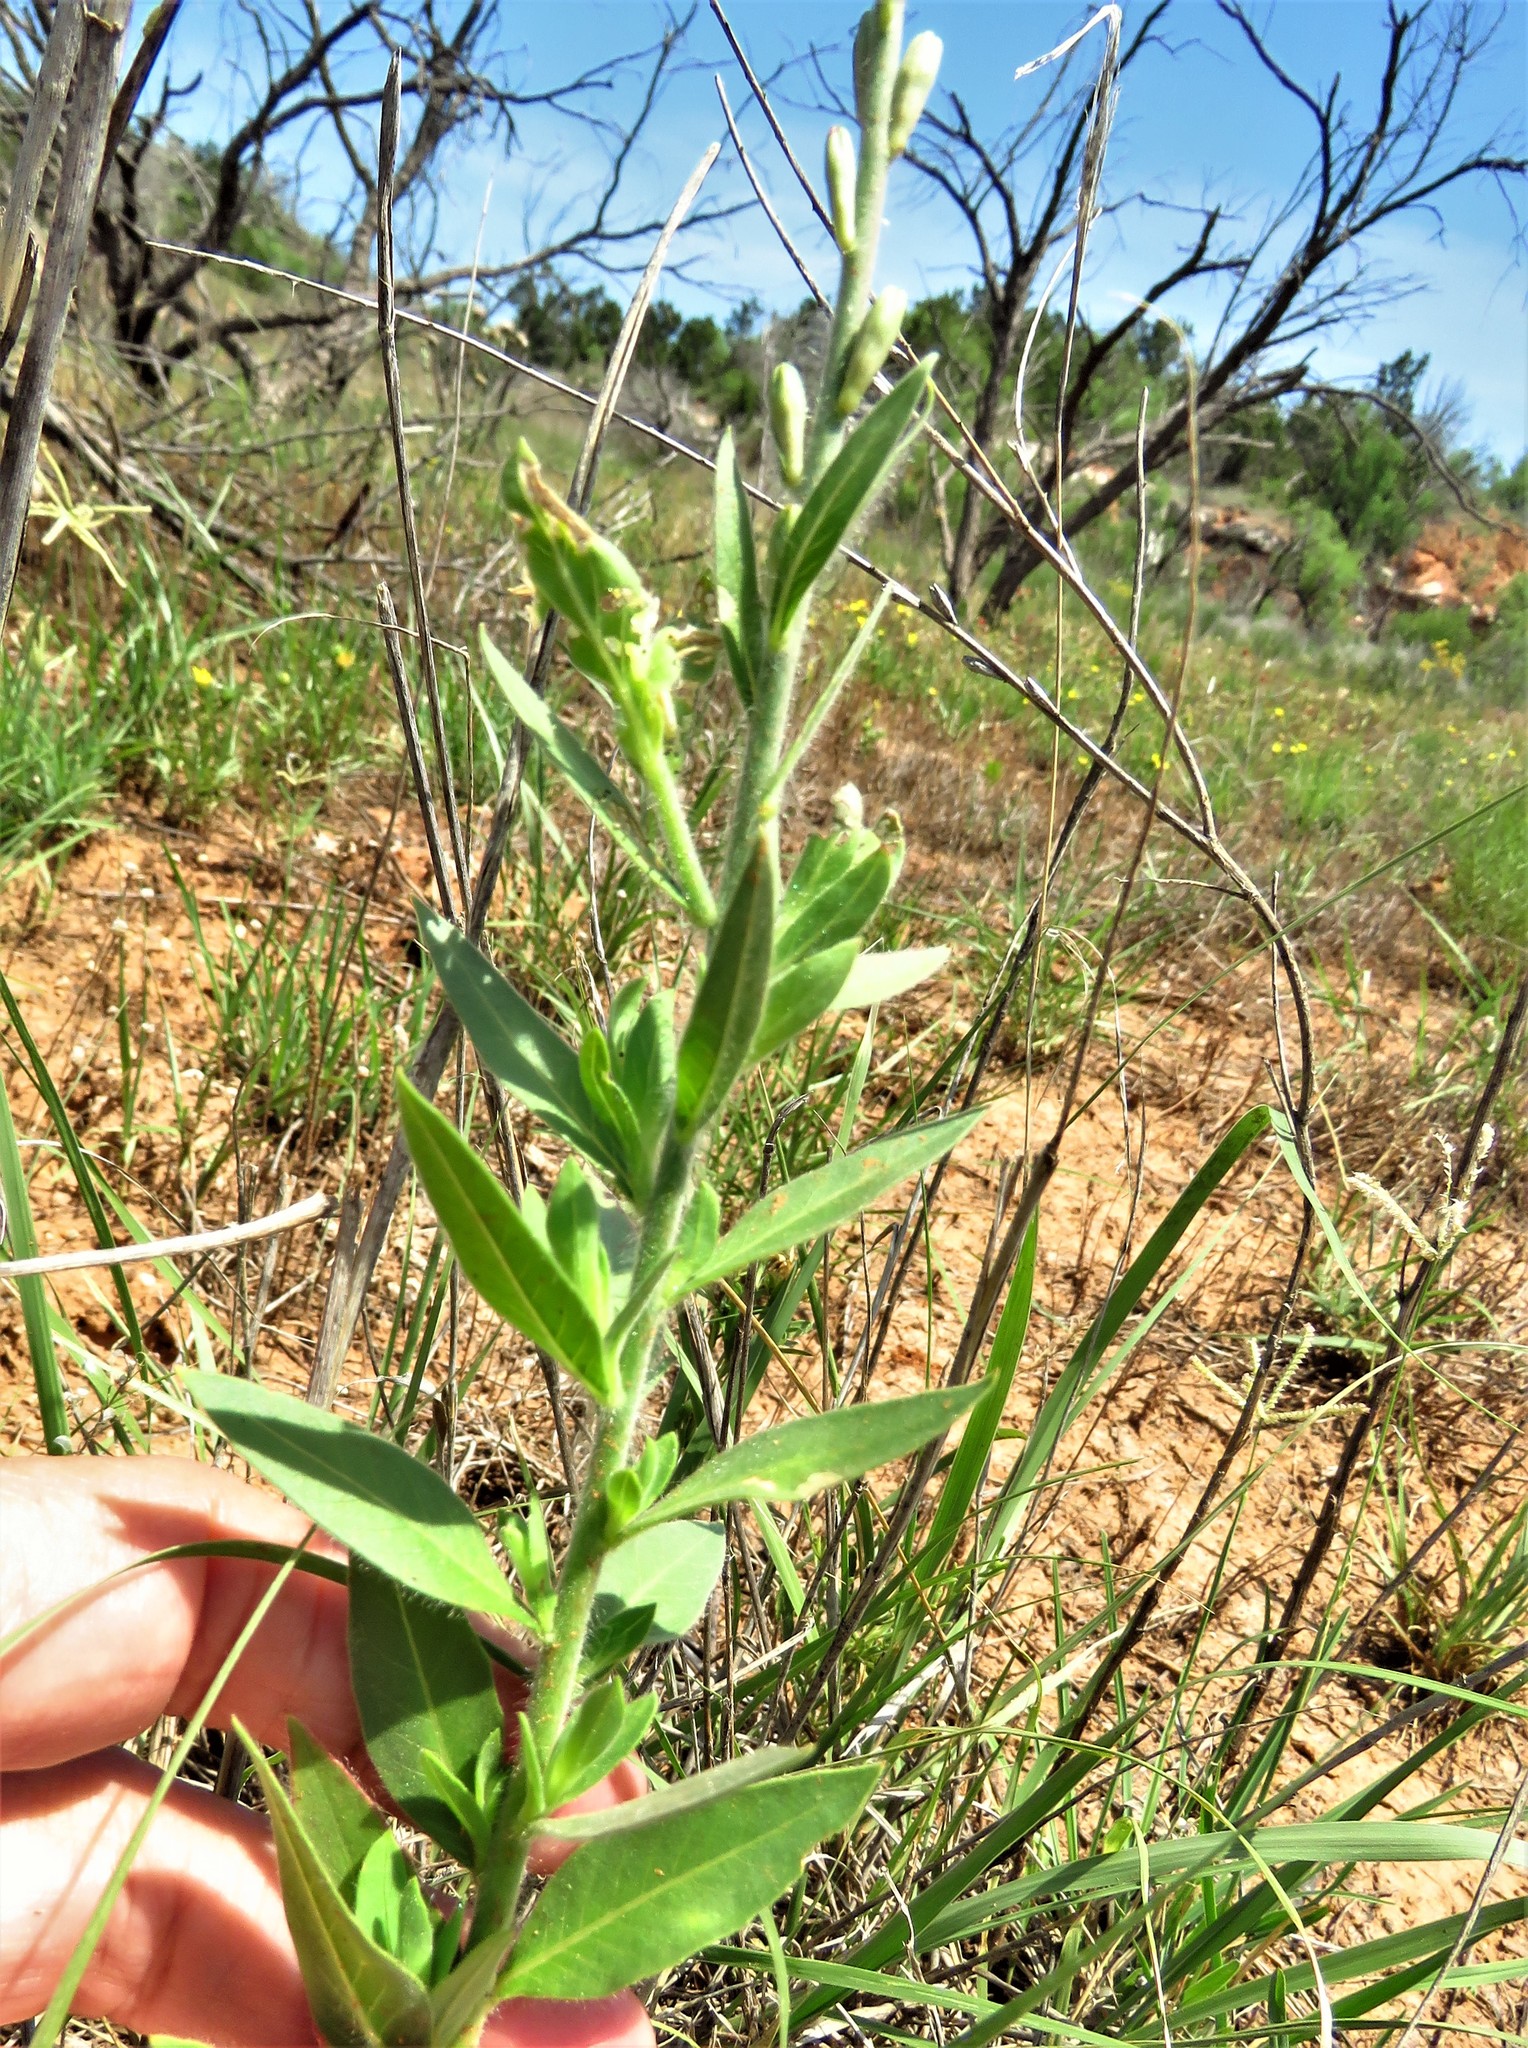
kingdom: Plantae
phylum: Tracheophyta
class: Magnoliopsida
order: Myrtales
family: Onagraceae
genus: Oenothera
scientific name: Oenothera curtiflora
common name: Velvetweed
